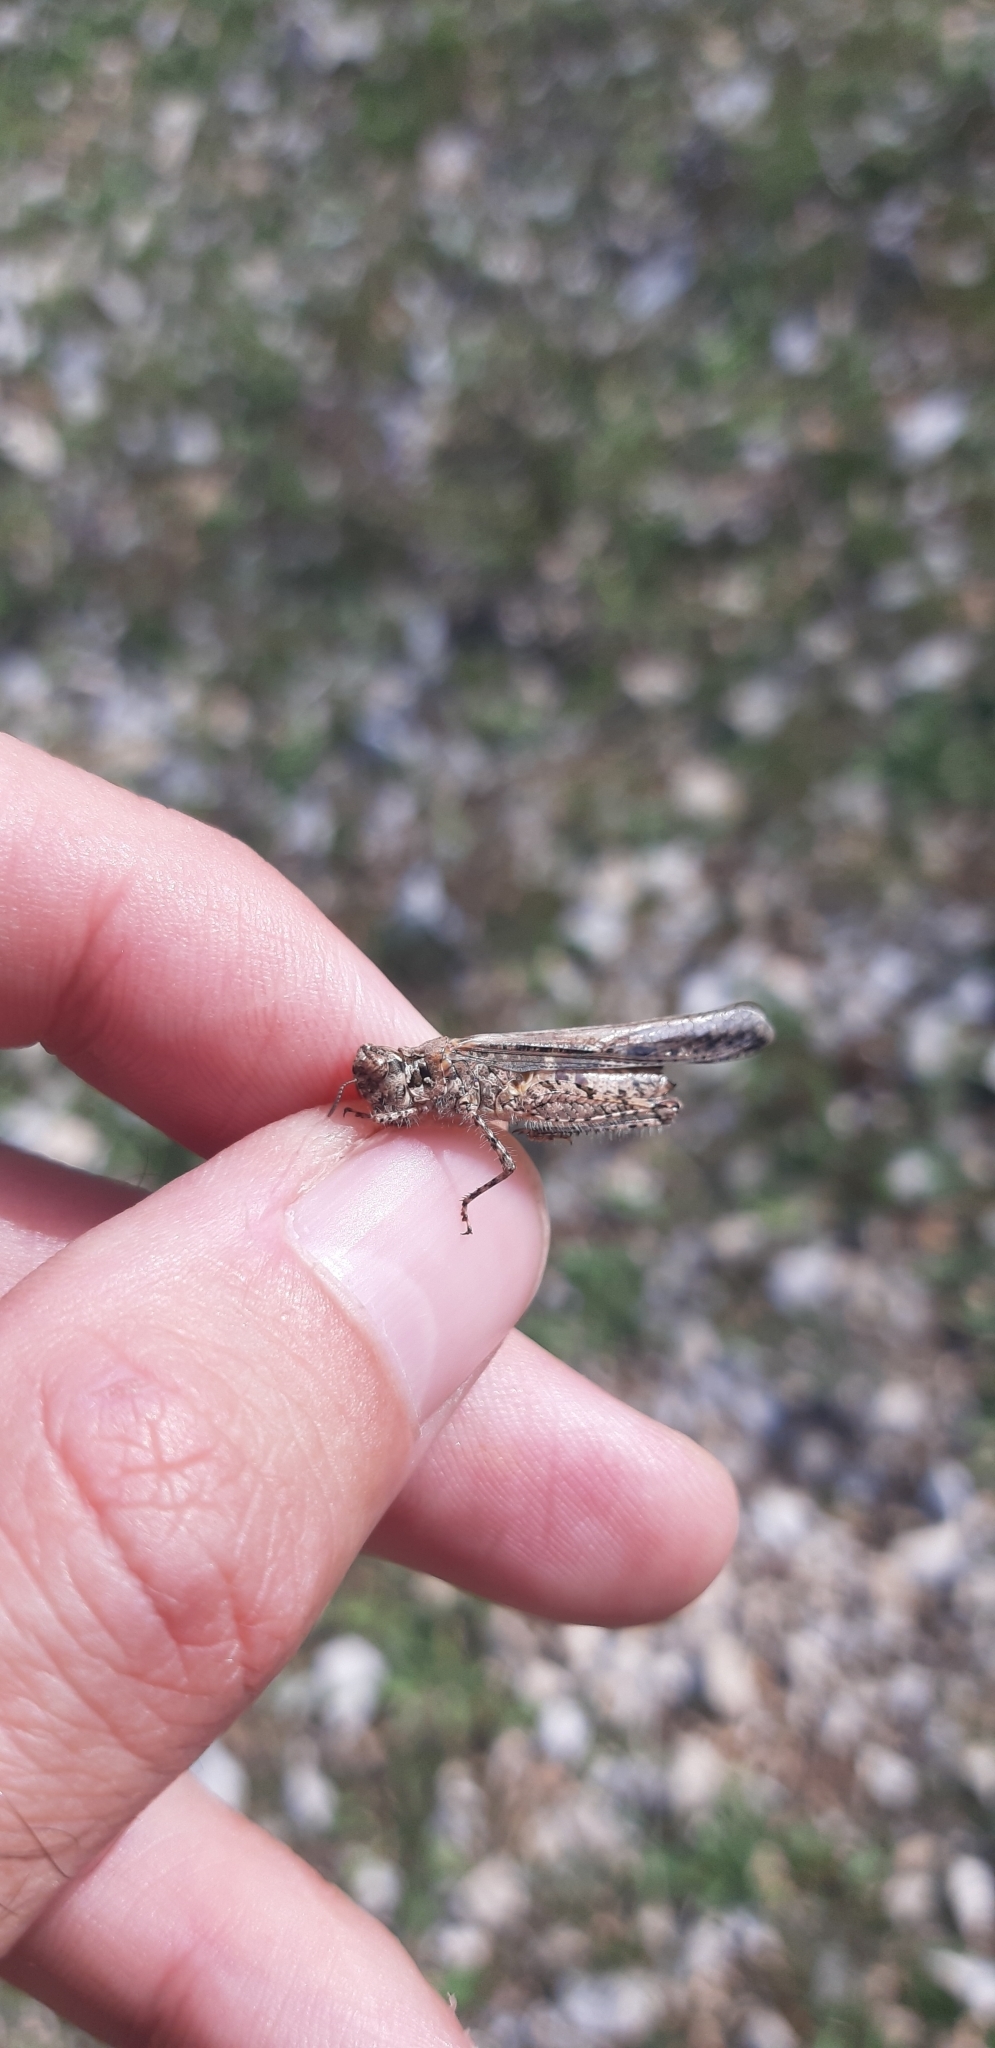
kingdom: Animalia
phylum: Arthropoda
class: Insecta
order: Orthoptera
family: Acrididae
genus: Acrotylus
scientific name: Acrotylus patruelis
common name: Slender burrowing grasshopper
